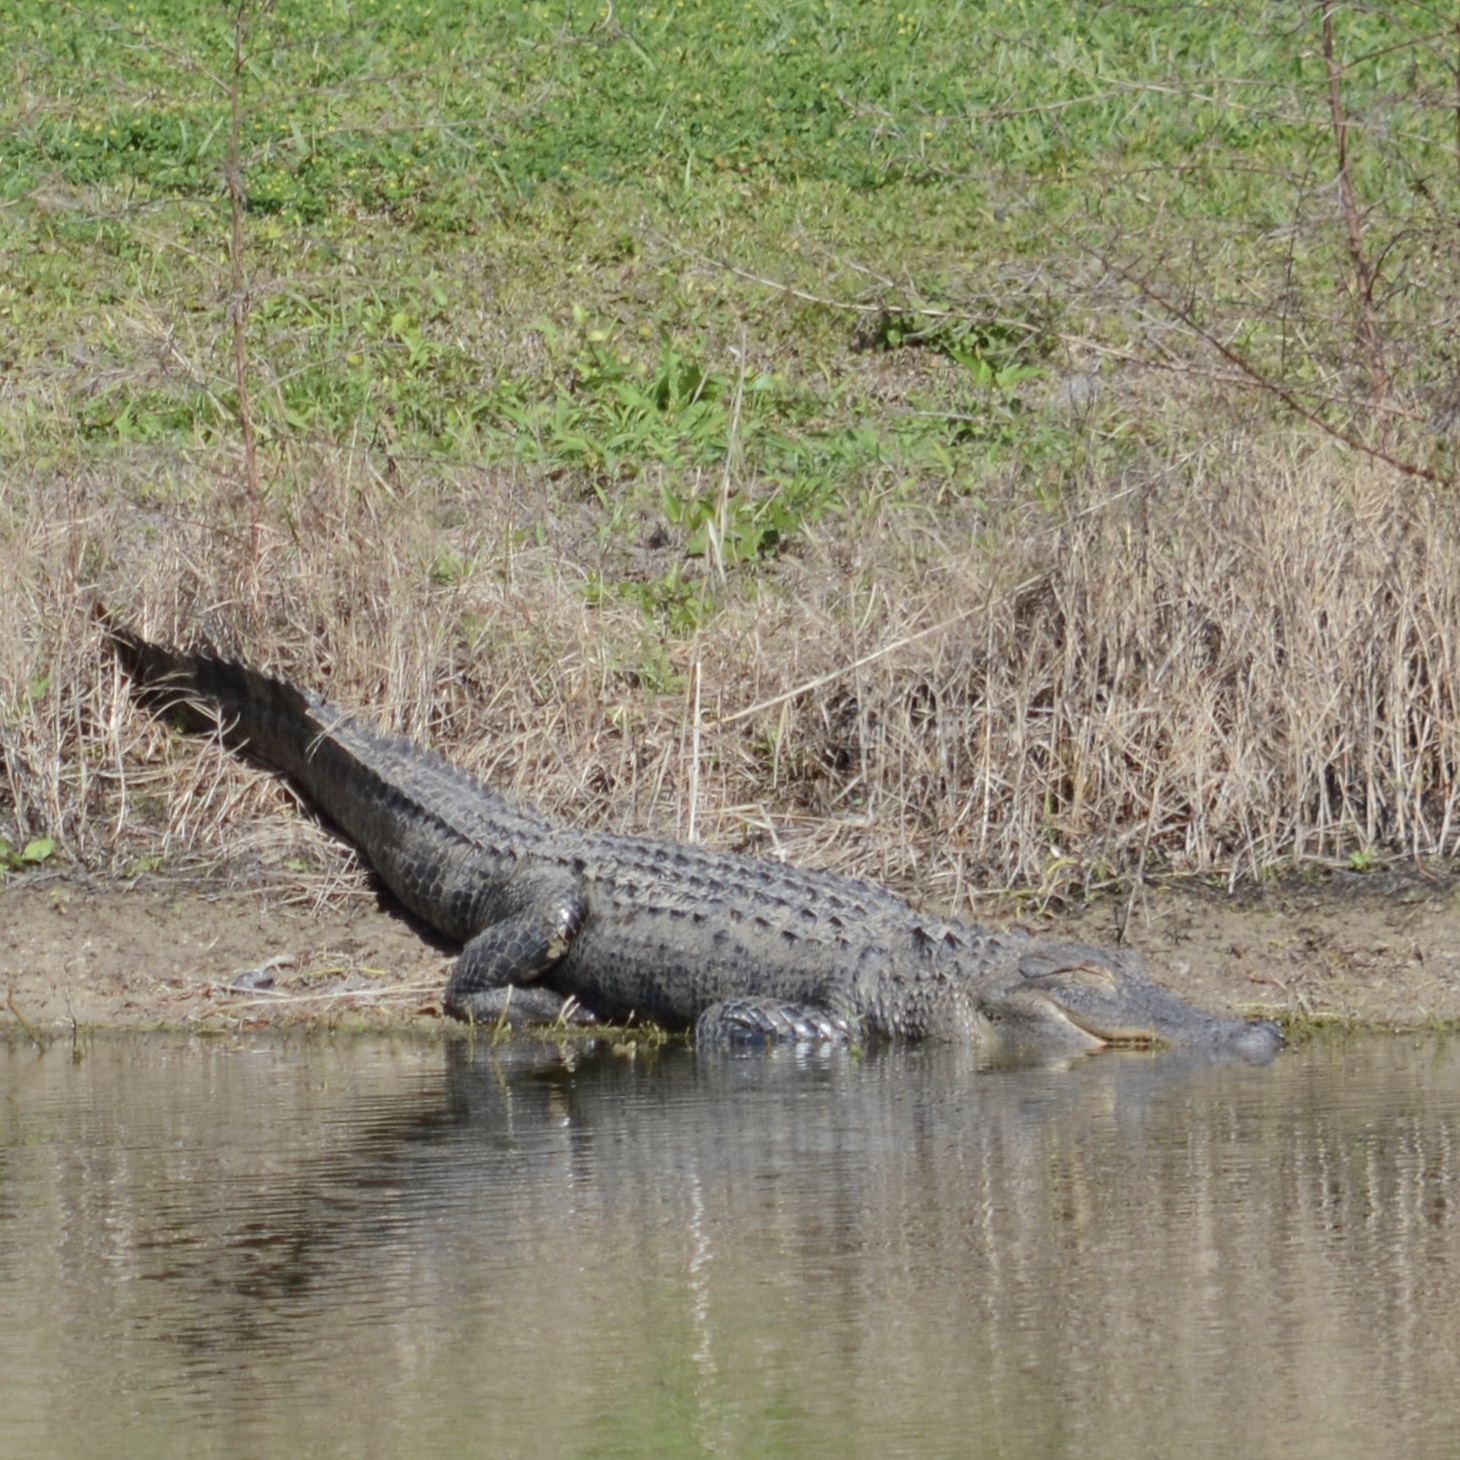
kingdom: Animalia
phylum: Chordata
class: Crocodylia
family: Alligatoridae
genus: Alligator
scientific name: Alligator mississippiensis
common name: American alligator
